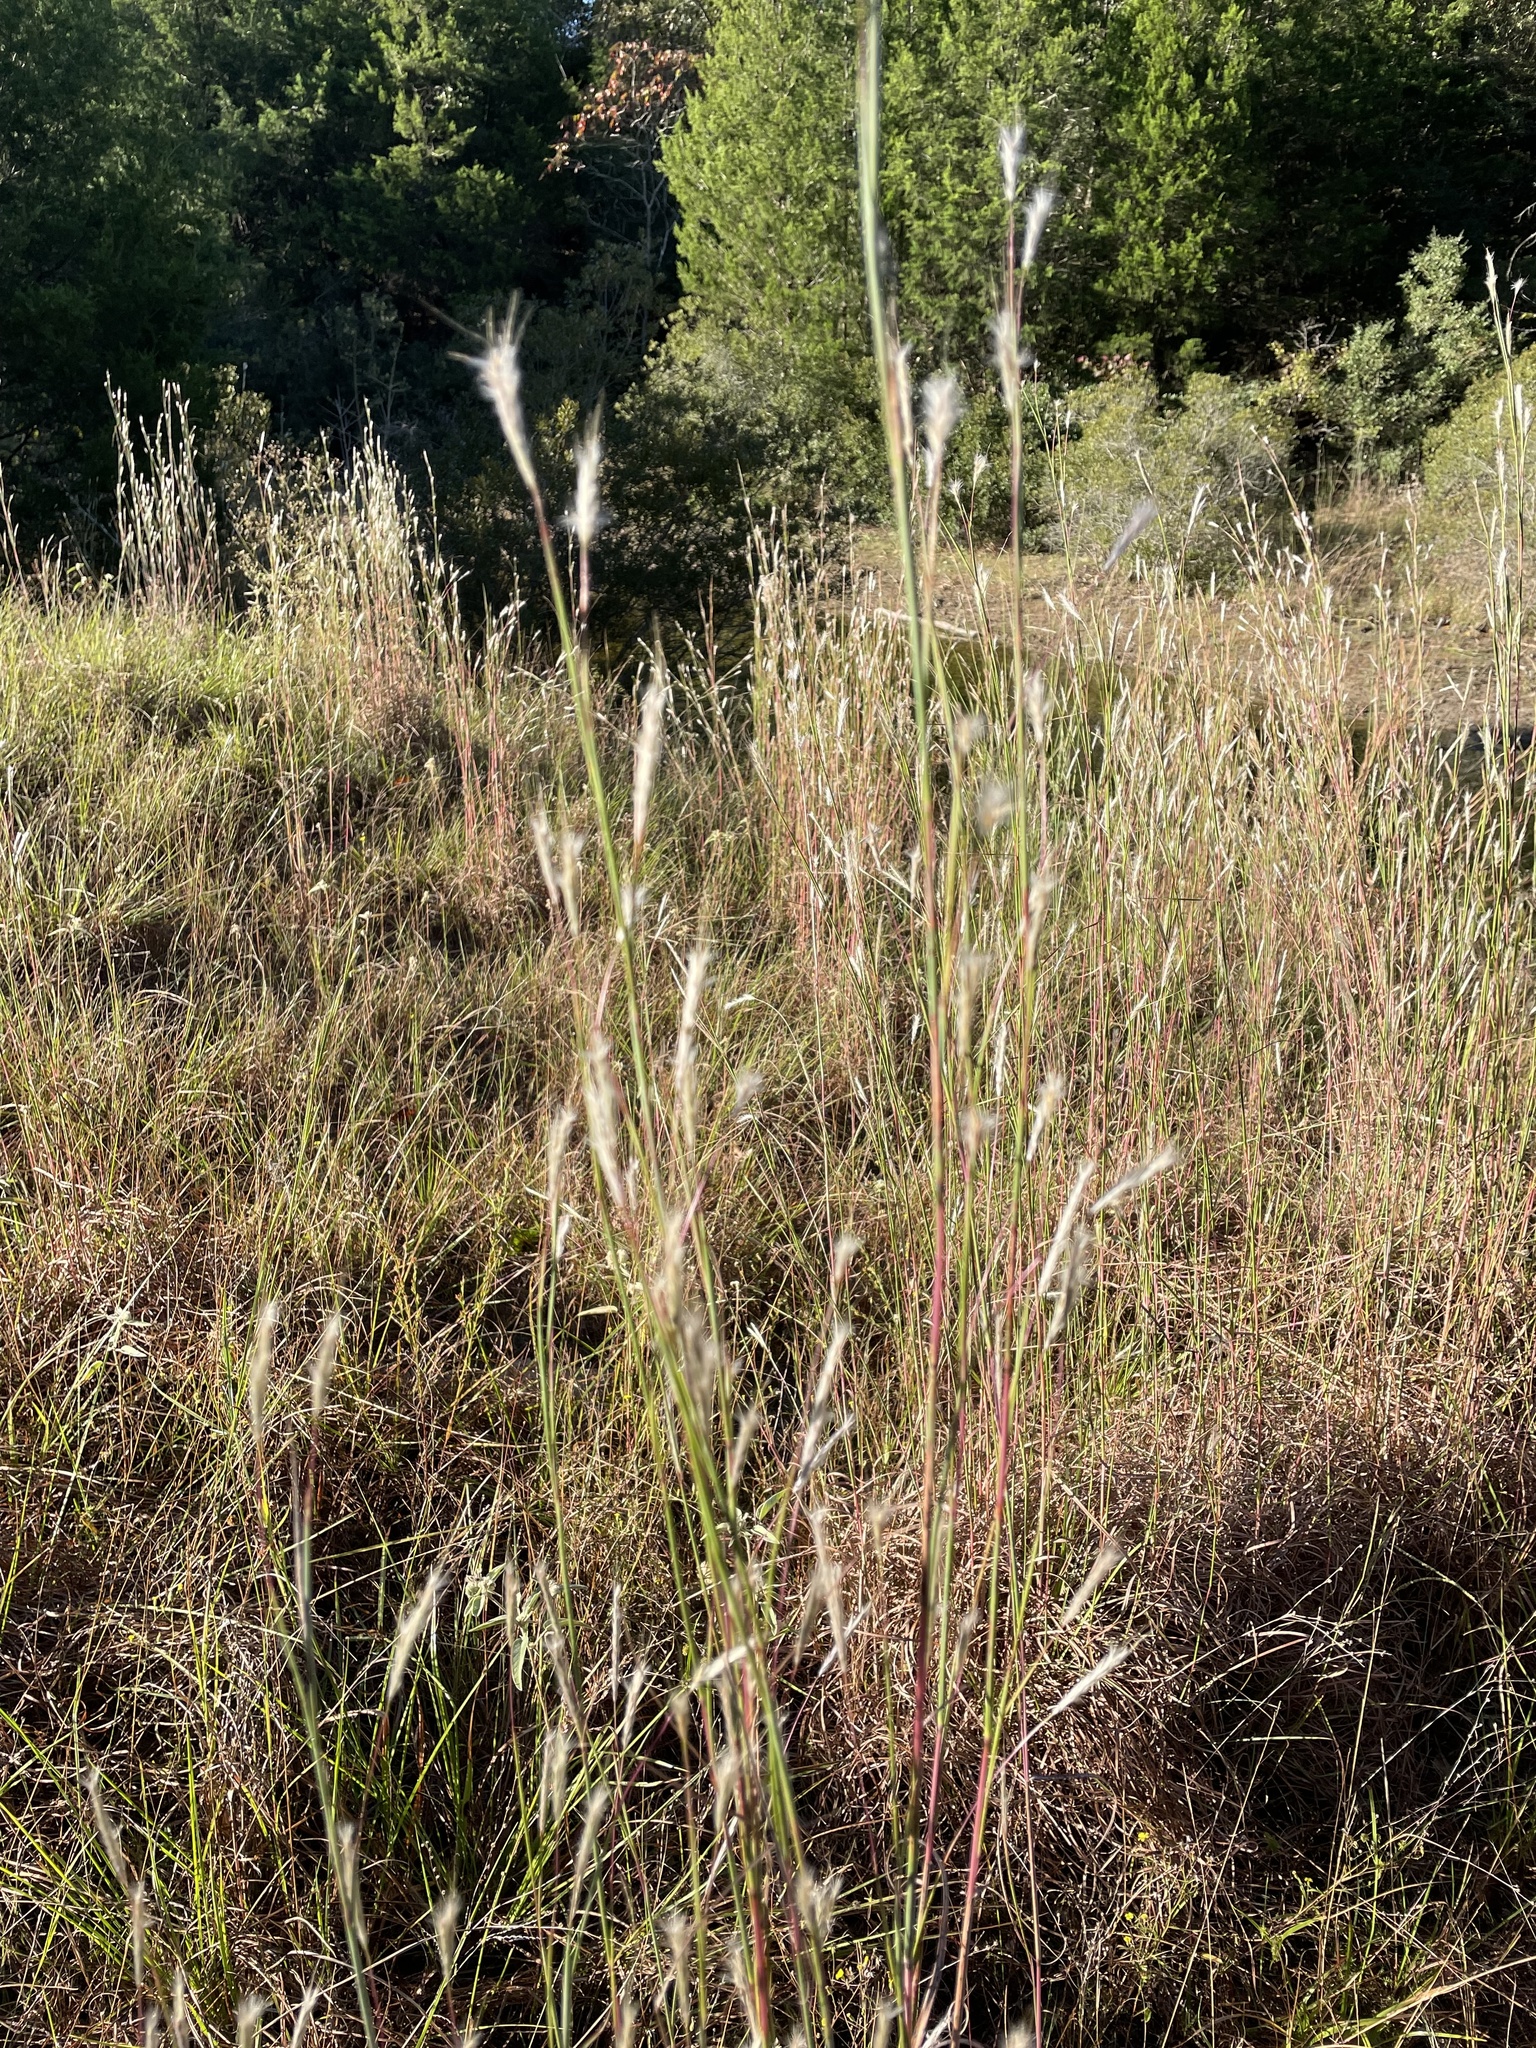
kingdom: Plantae
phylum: Tracheophyta
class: Liliopsida
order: Poales
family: Poaceae
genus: Andropogon
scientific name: Andropogon ternarius
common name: Split bluestem
